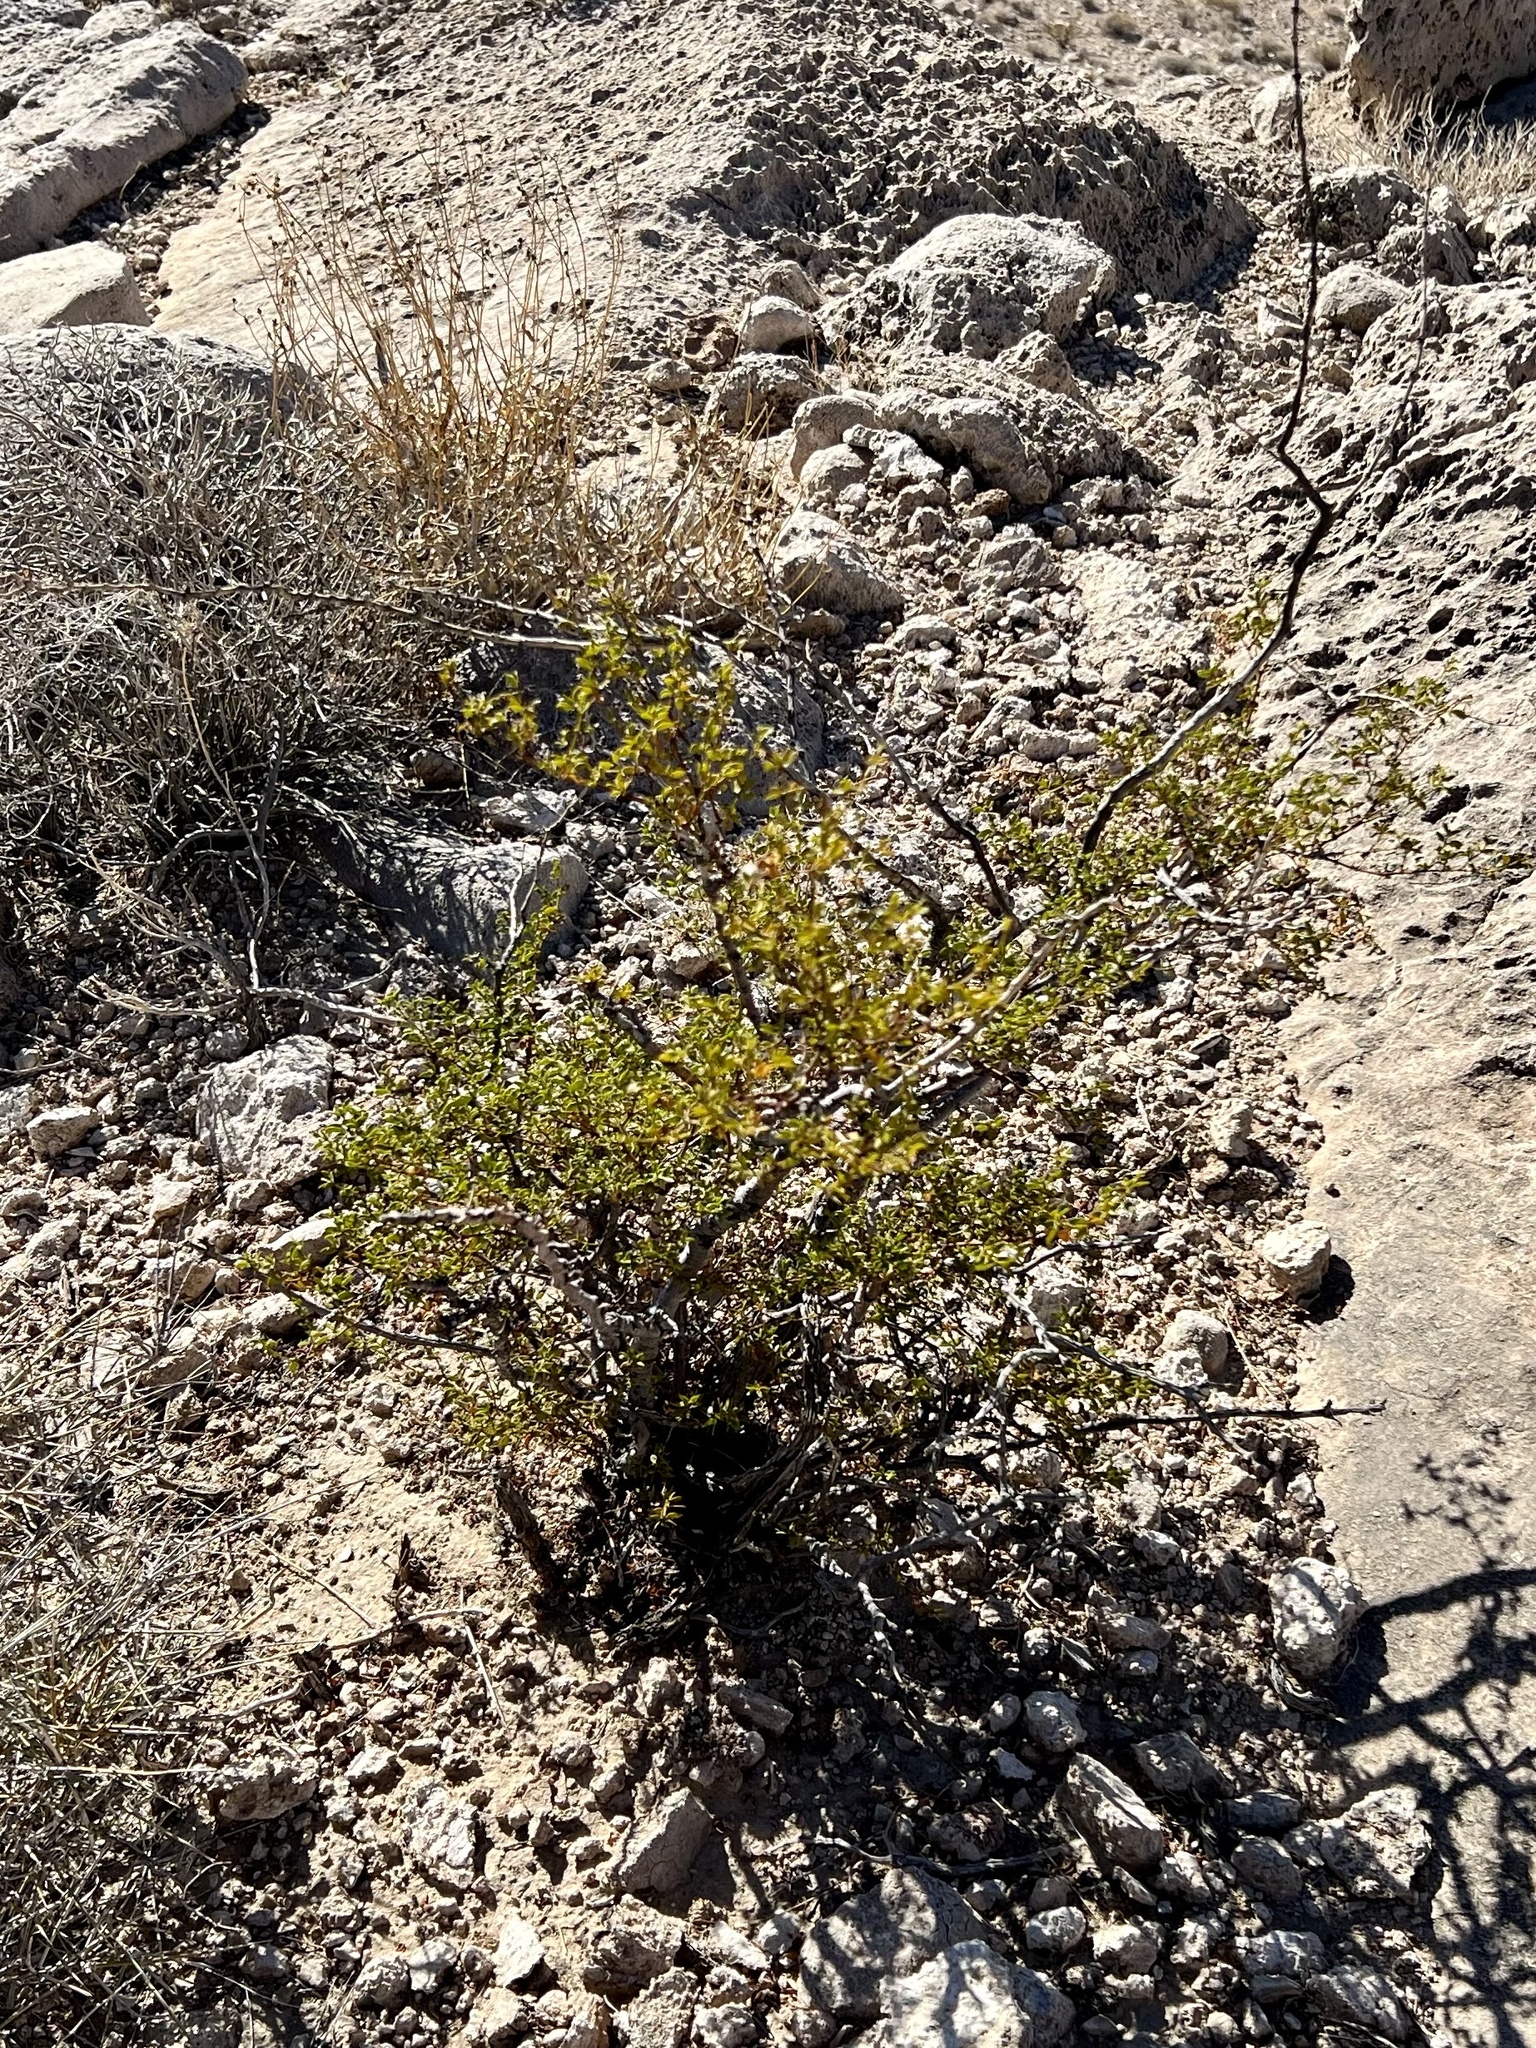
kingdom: Plantae
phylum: Tracheophyta
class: Magnoliopsida
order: Zygophyllales
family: Zygophyllaceae
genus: Larrea
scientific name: Larrea tridentata
